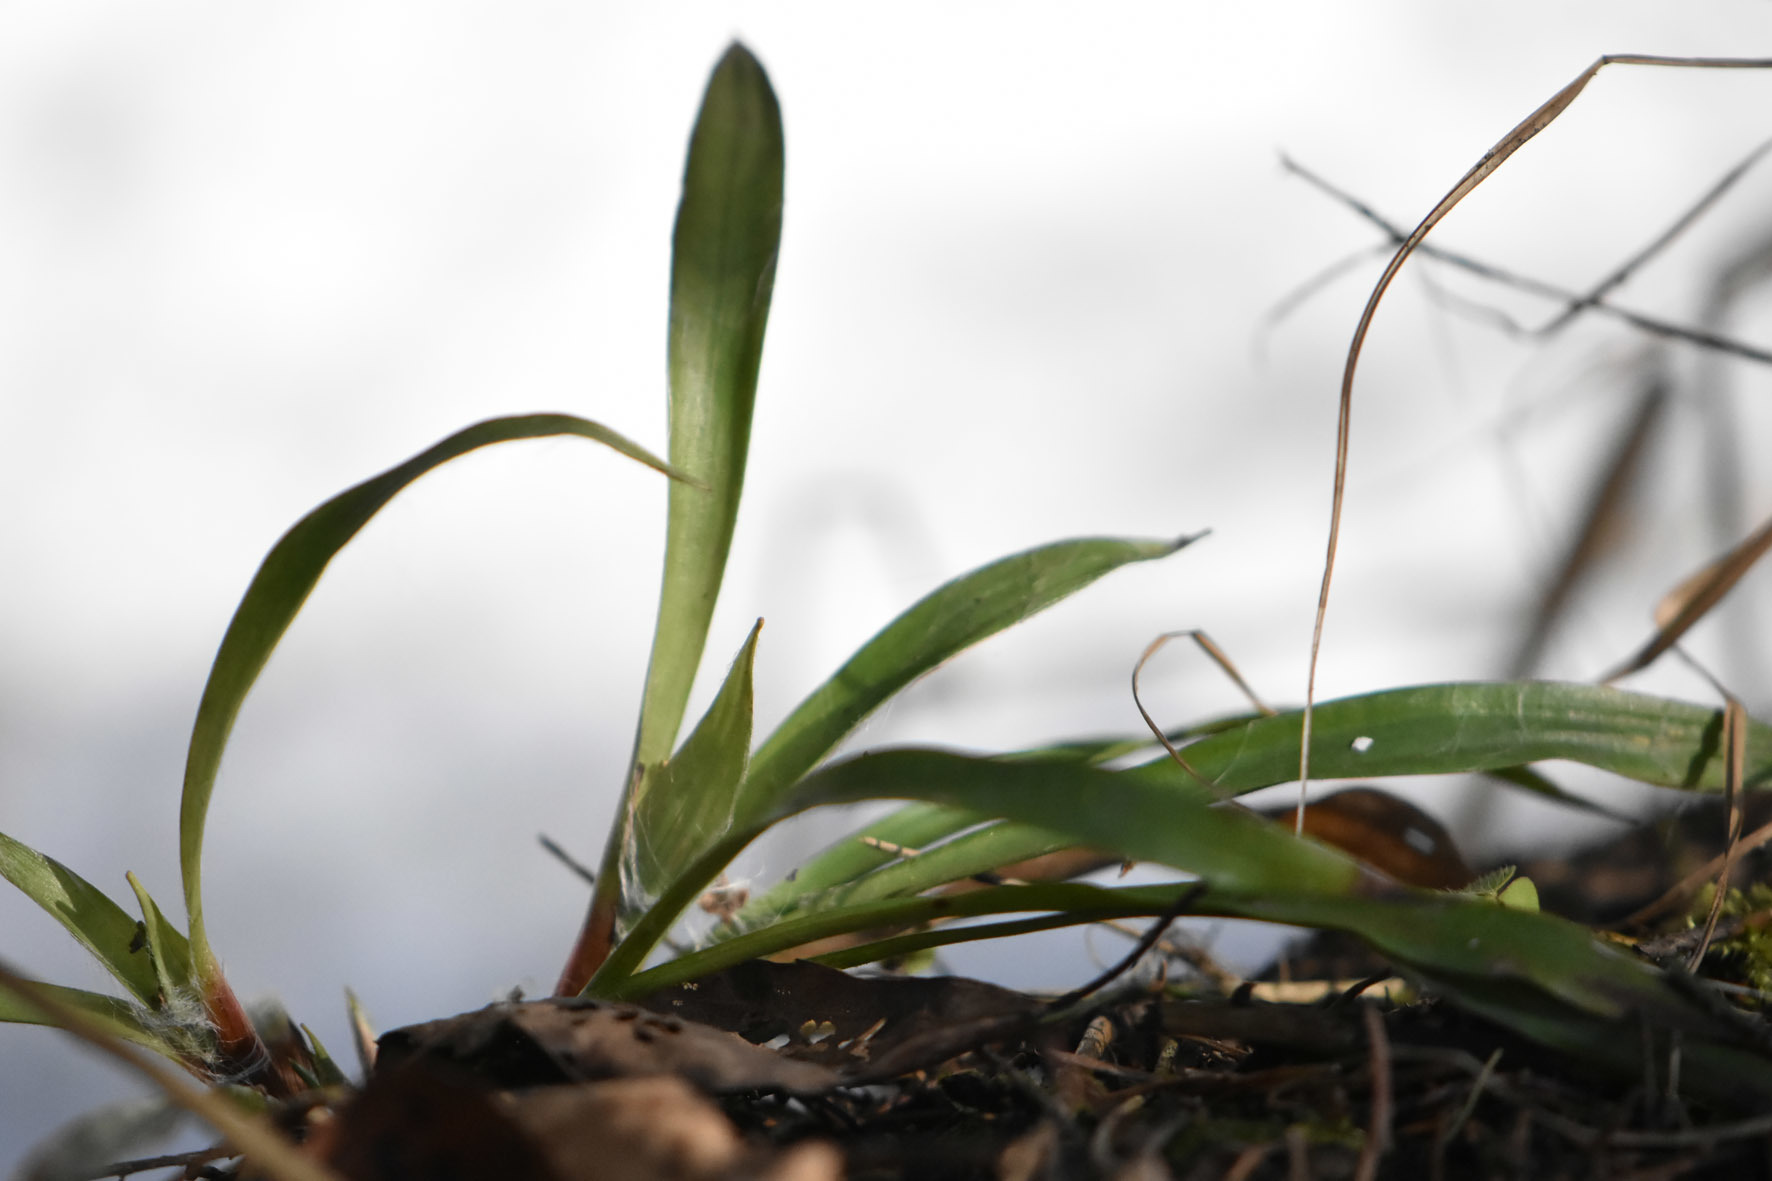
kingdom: Plantae
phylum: Tracheophyta
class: Liliopsida
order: Poales
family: Juncaceae
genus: Luzula
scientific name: Luzula pilosa
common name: Hairy wood-rush
